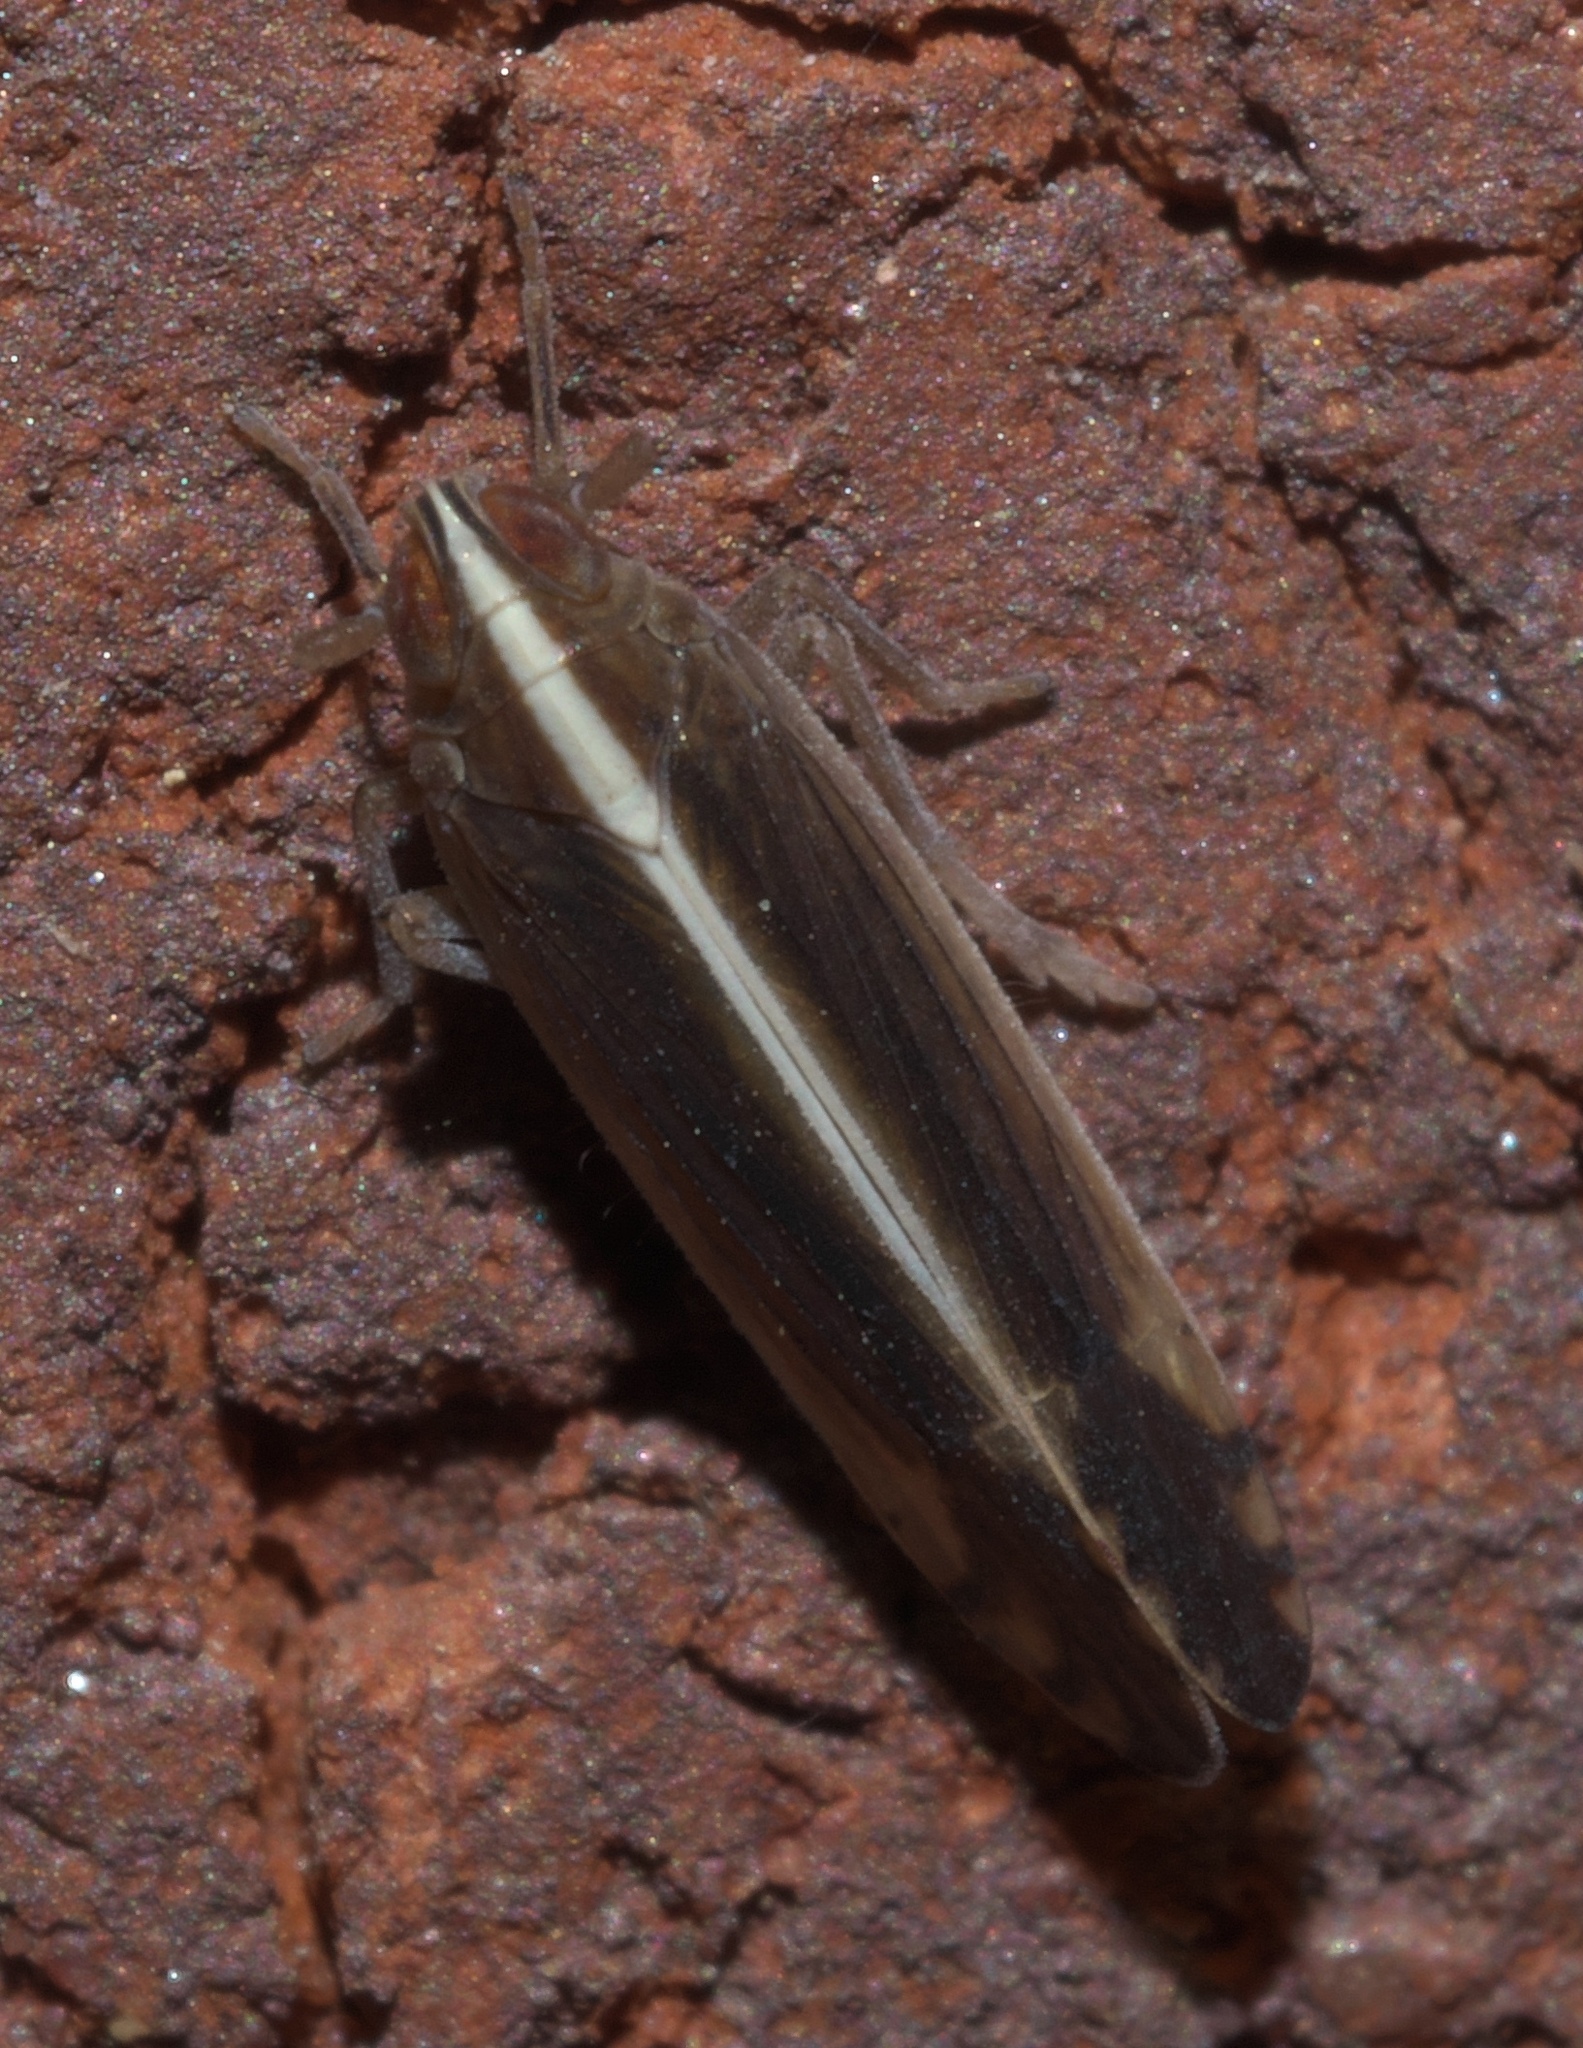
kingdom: Animalia
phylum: Arthropoda
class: Insecta
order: Hemiptera
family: Delphacidae
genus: Stenocranus
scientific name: Stenocranus vittatus
